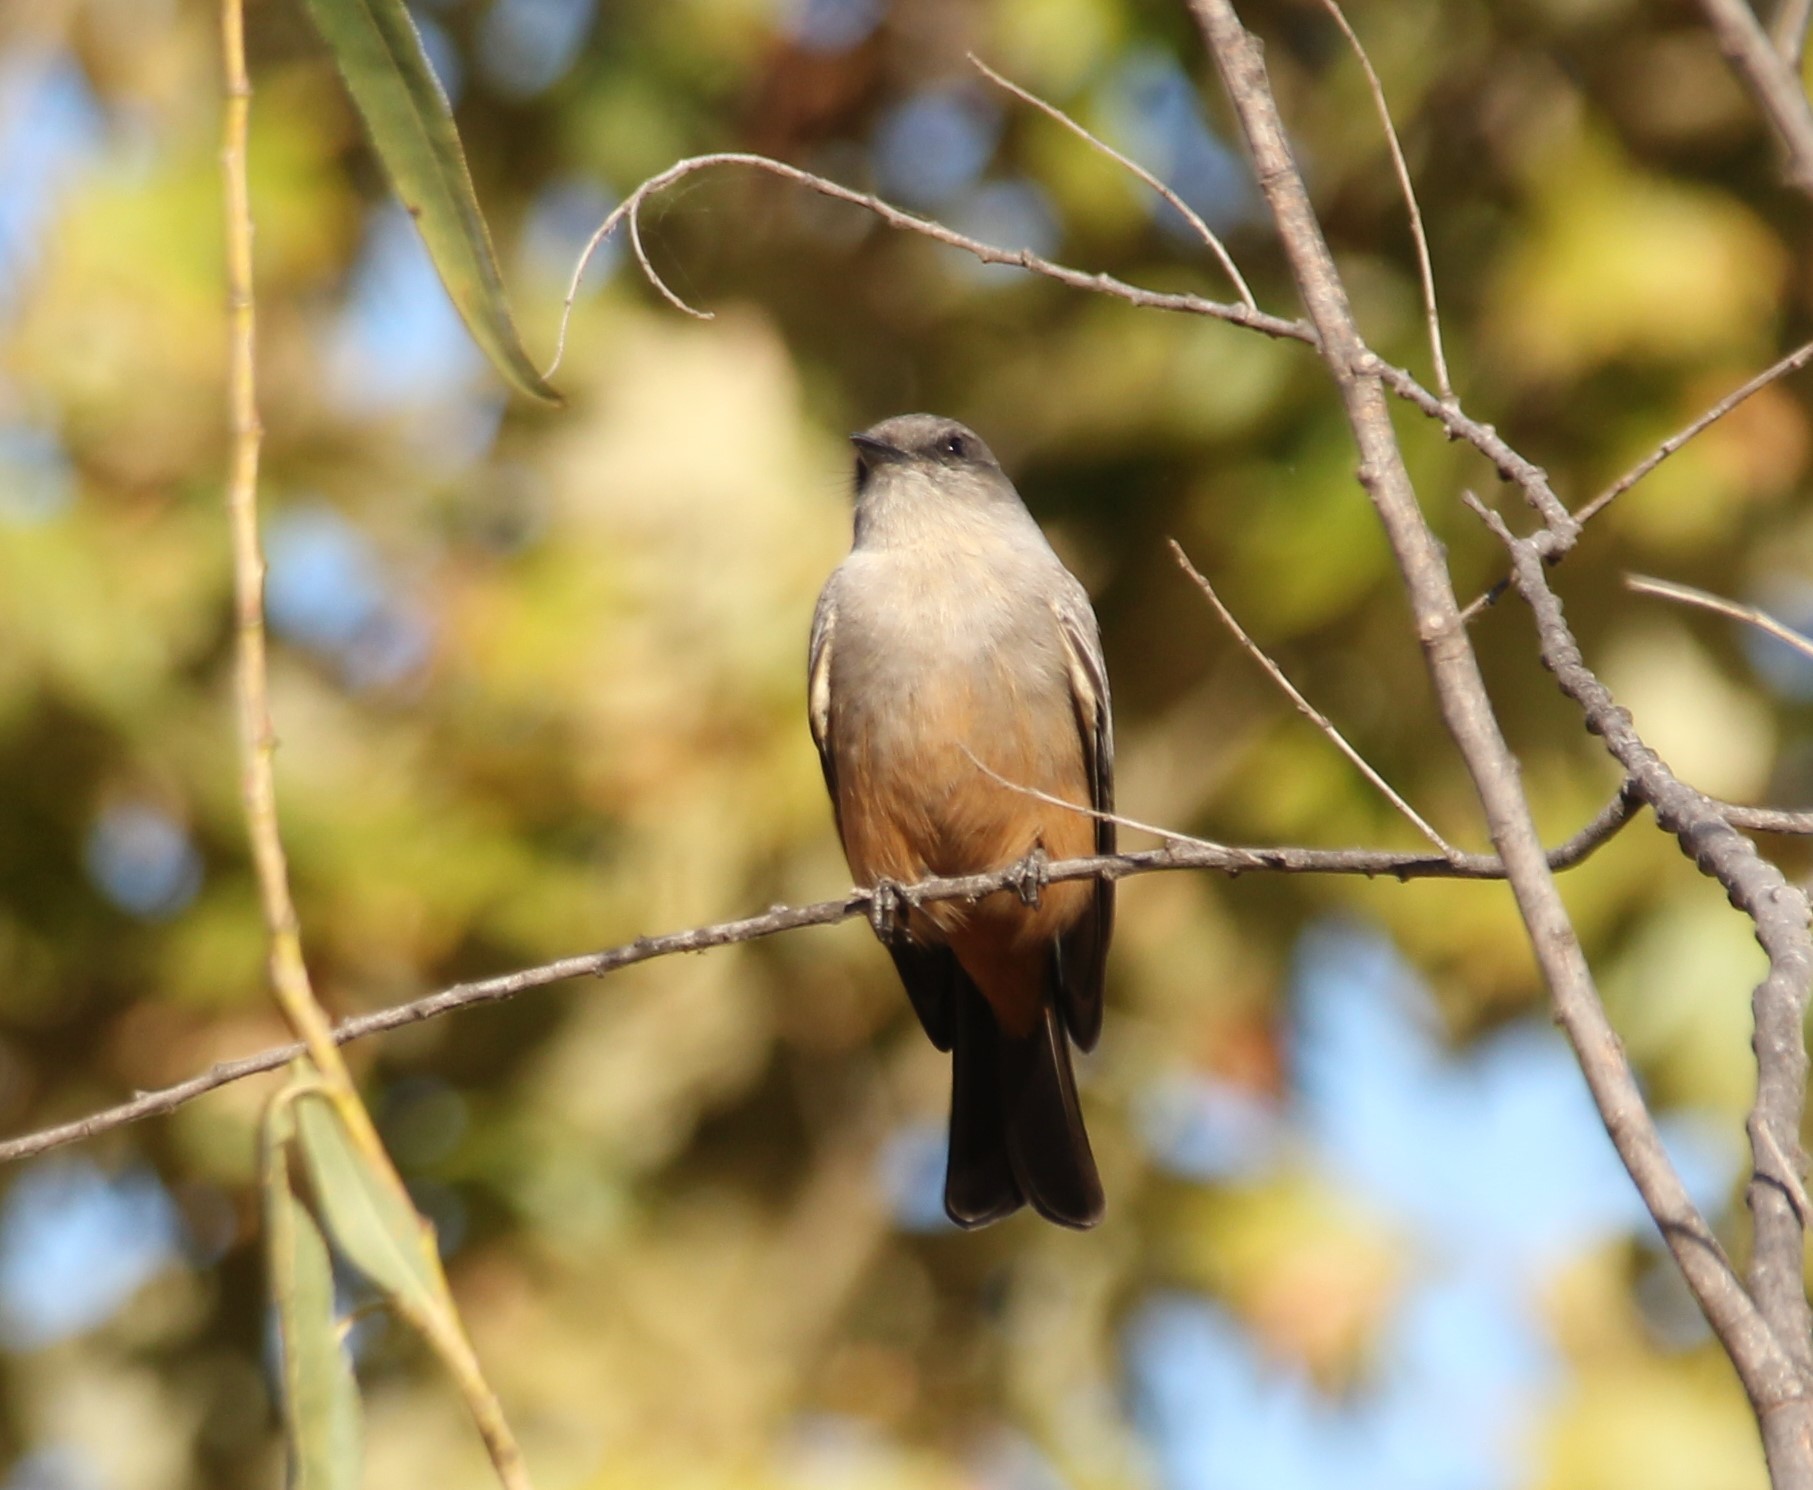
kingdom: Animalia
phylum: Chordata
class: Aves
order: Passeriformes
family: Tyrannidae
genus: Sayornis
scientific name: Sayornis saya
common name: Say's phoebe
